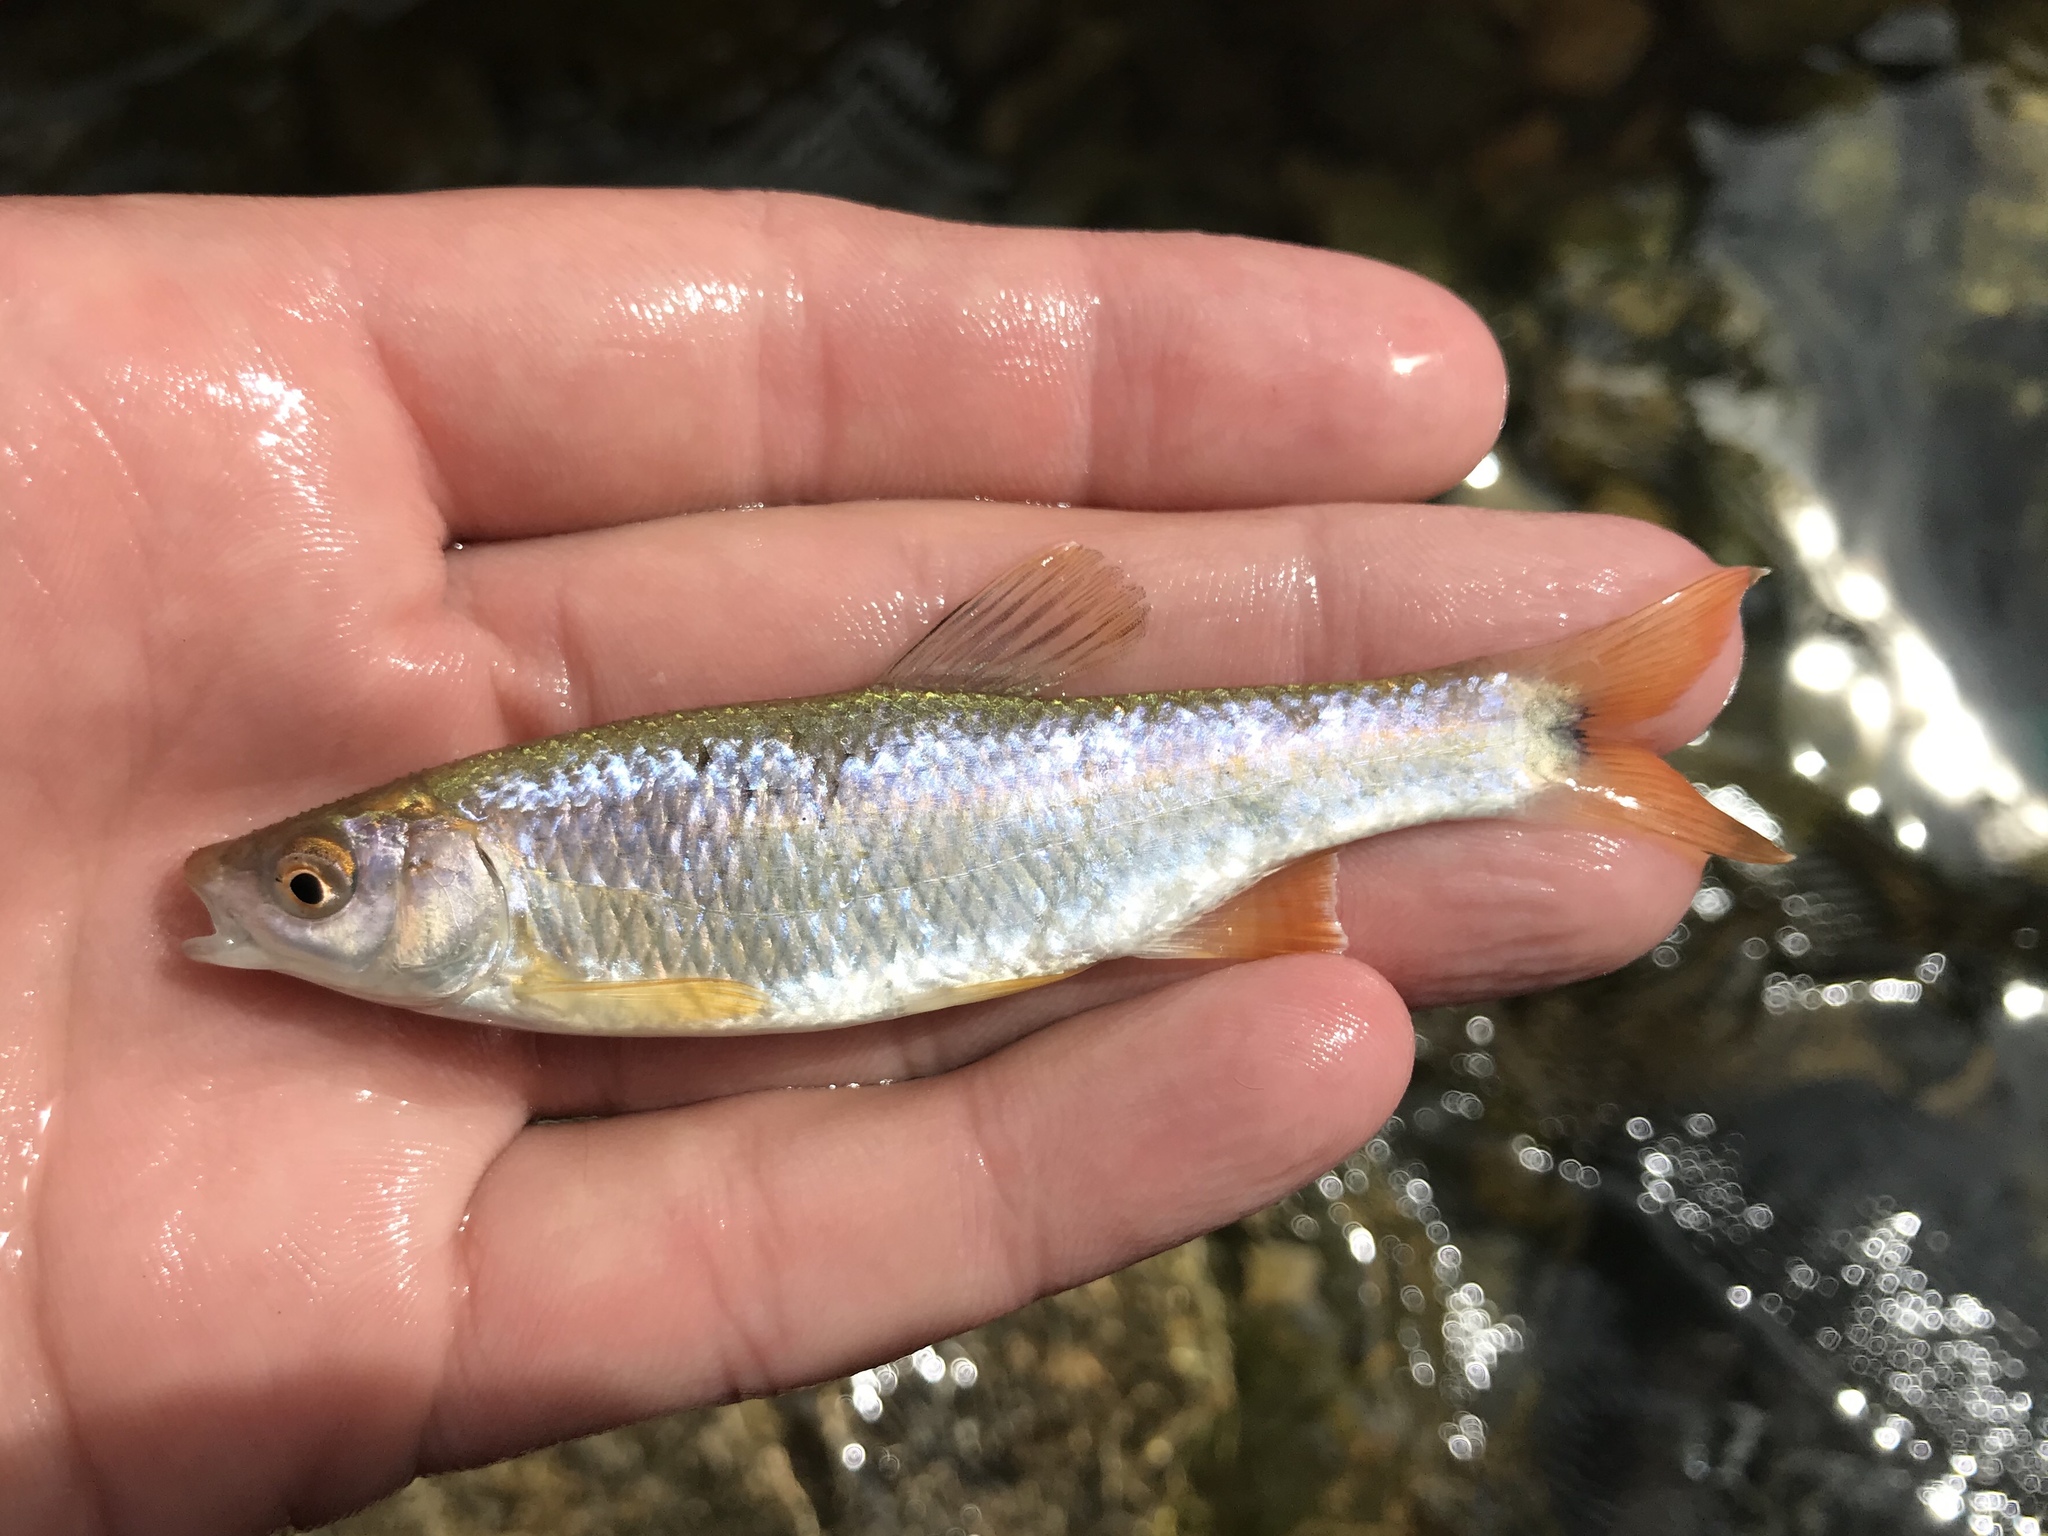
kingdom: Animalia
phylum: Chordata
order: Cypriniformes
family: Cyprinidae
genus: Cyprinella
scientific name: Cyprinella venusta
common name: Blacktail shiner
